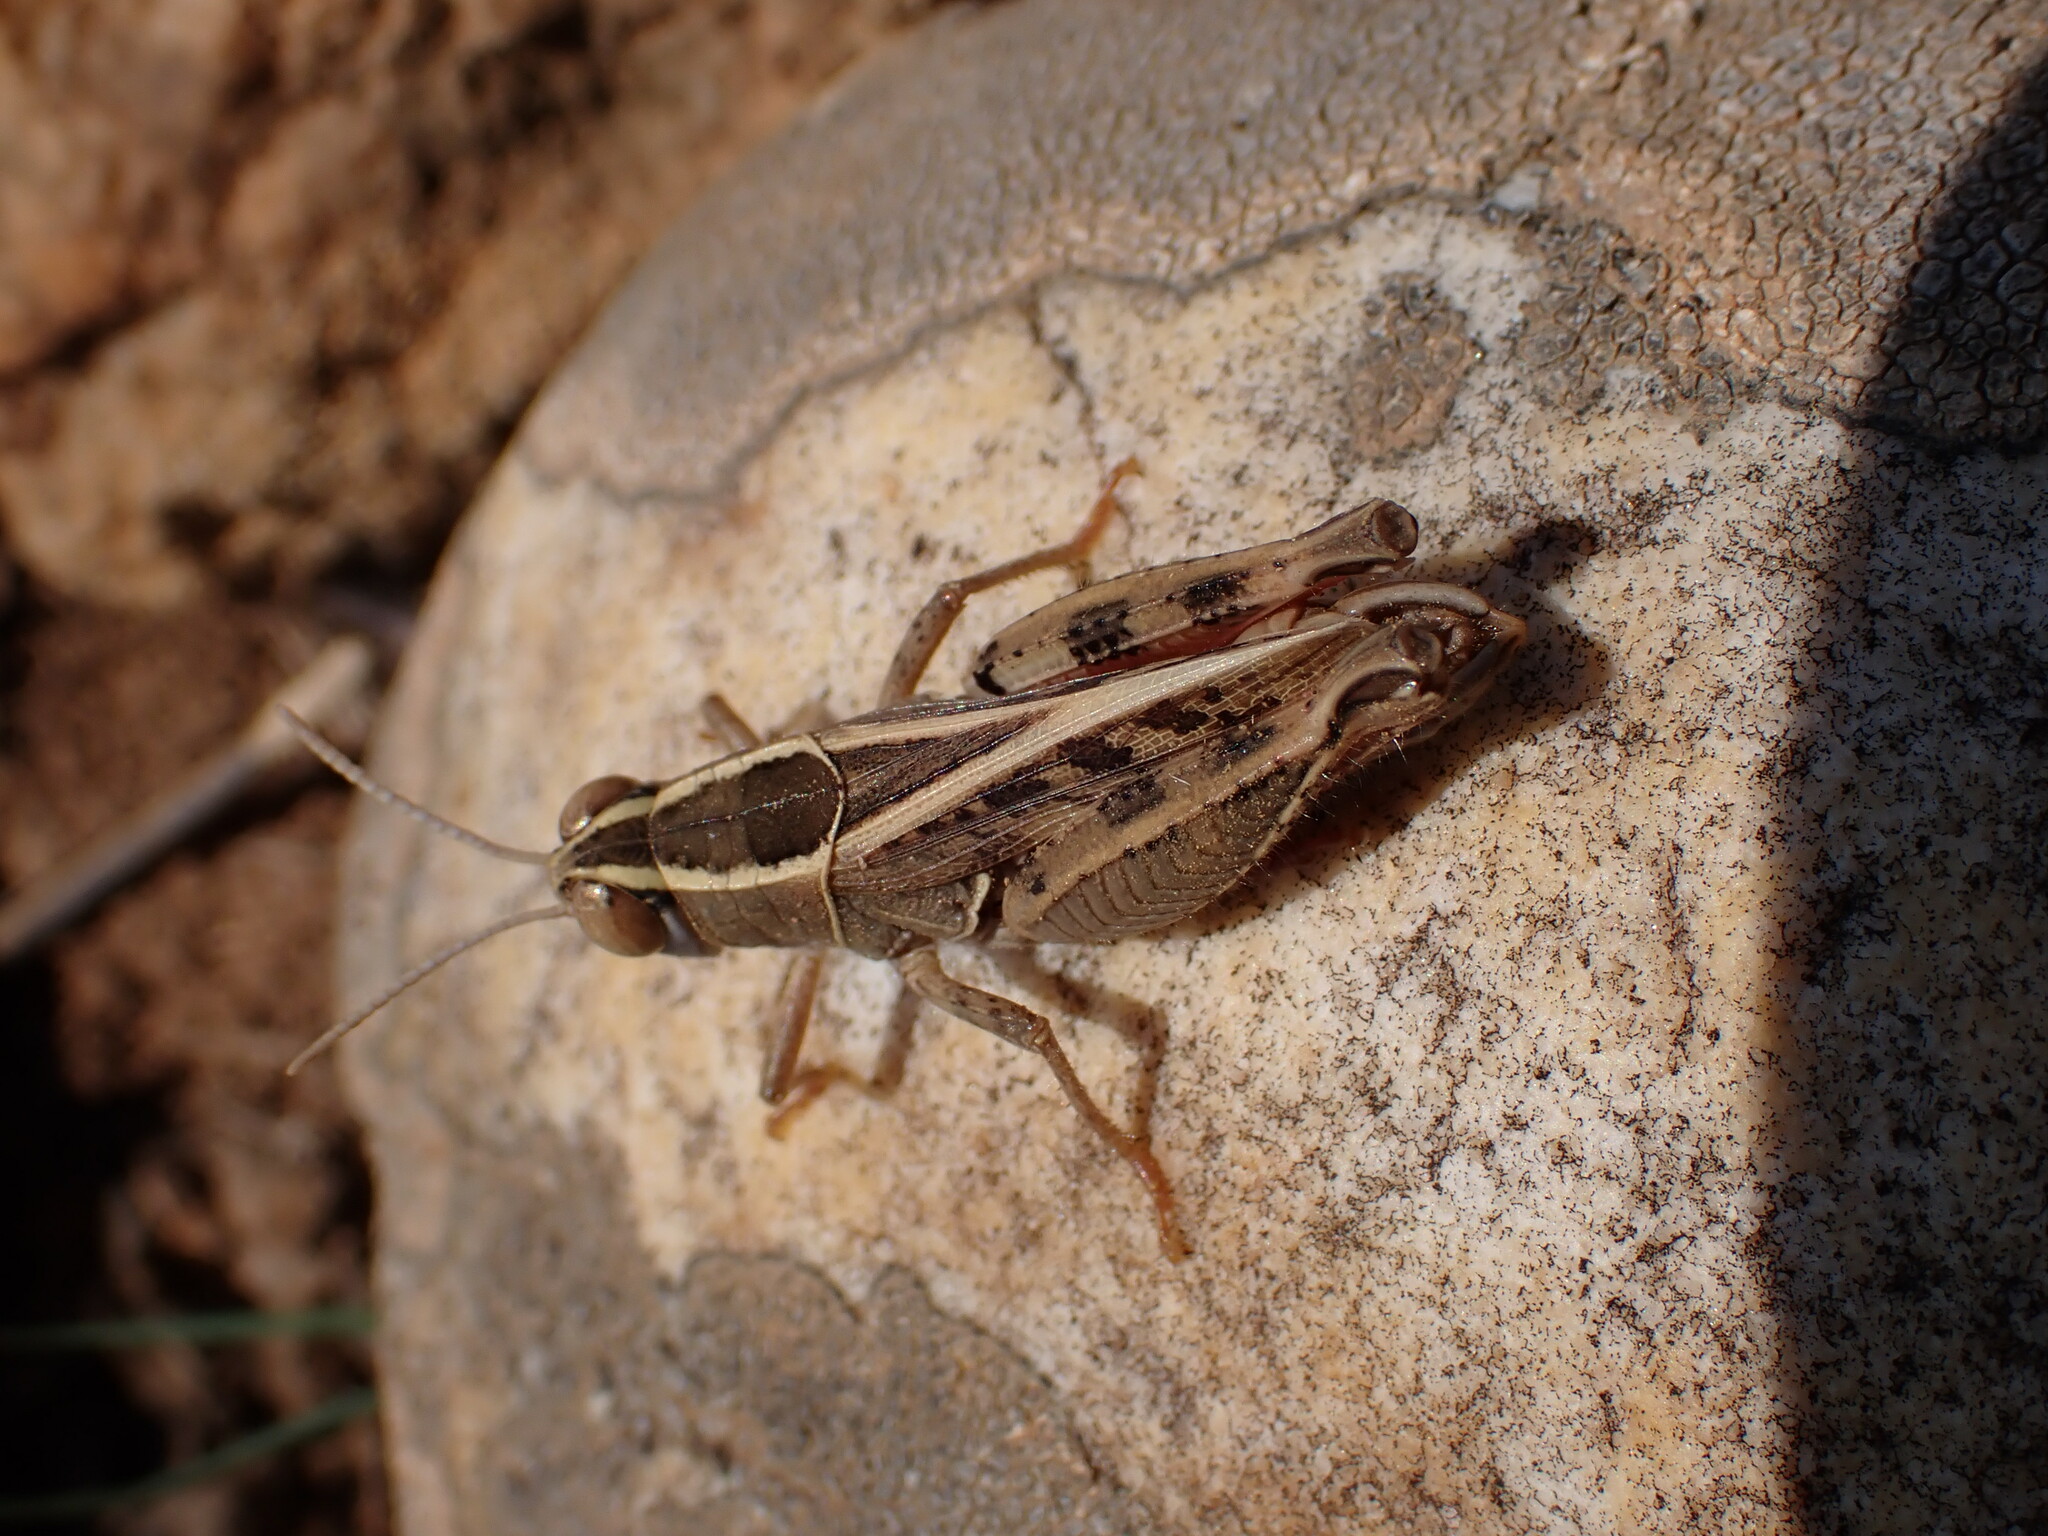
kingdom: Animalia
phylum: Arthropoda
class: Insecta
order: Orthoptera
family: Acrididae
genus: Calliptamus
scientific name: Calliptamus wattenwylianus
